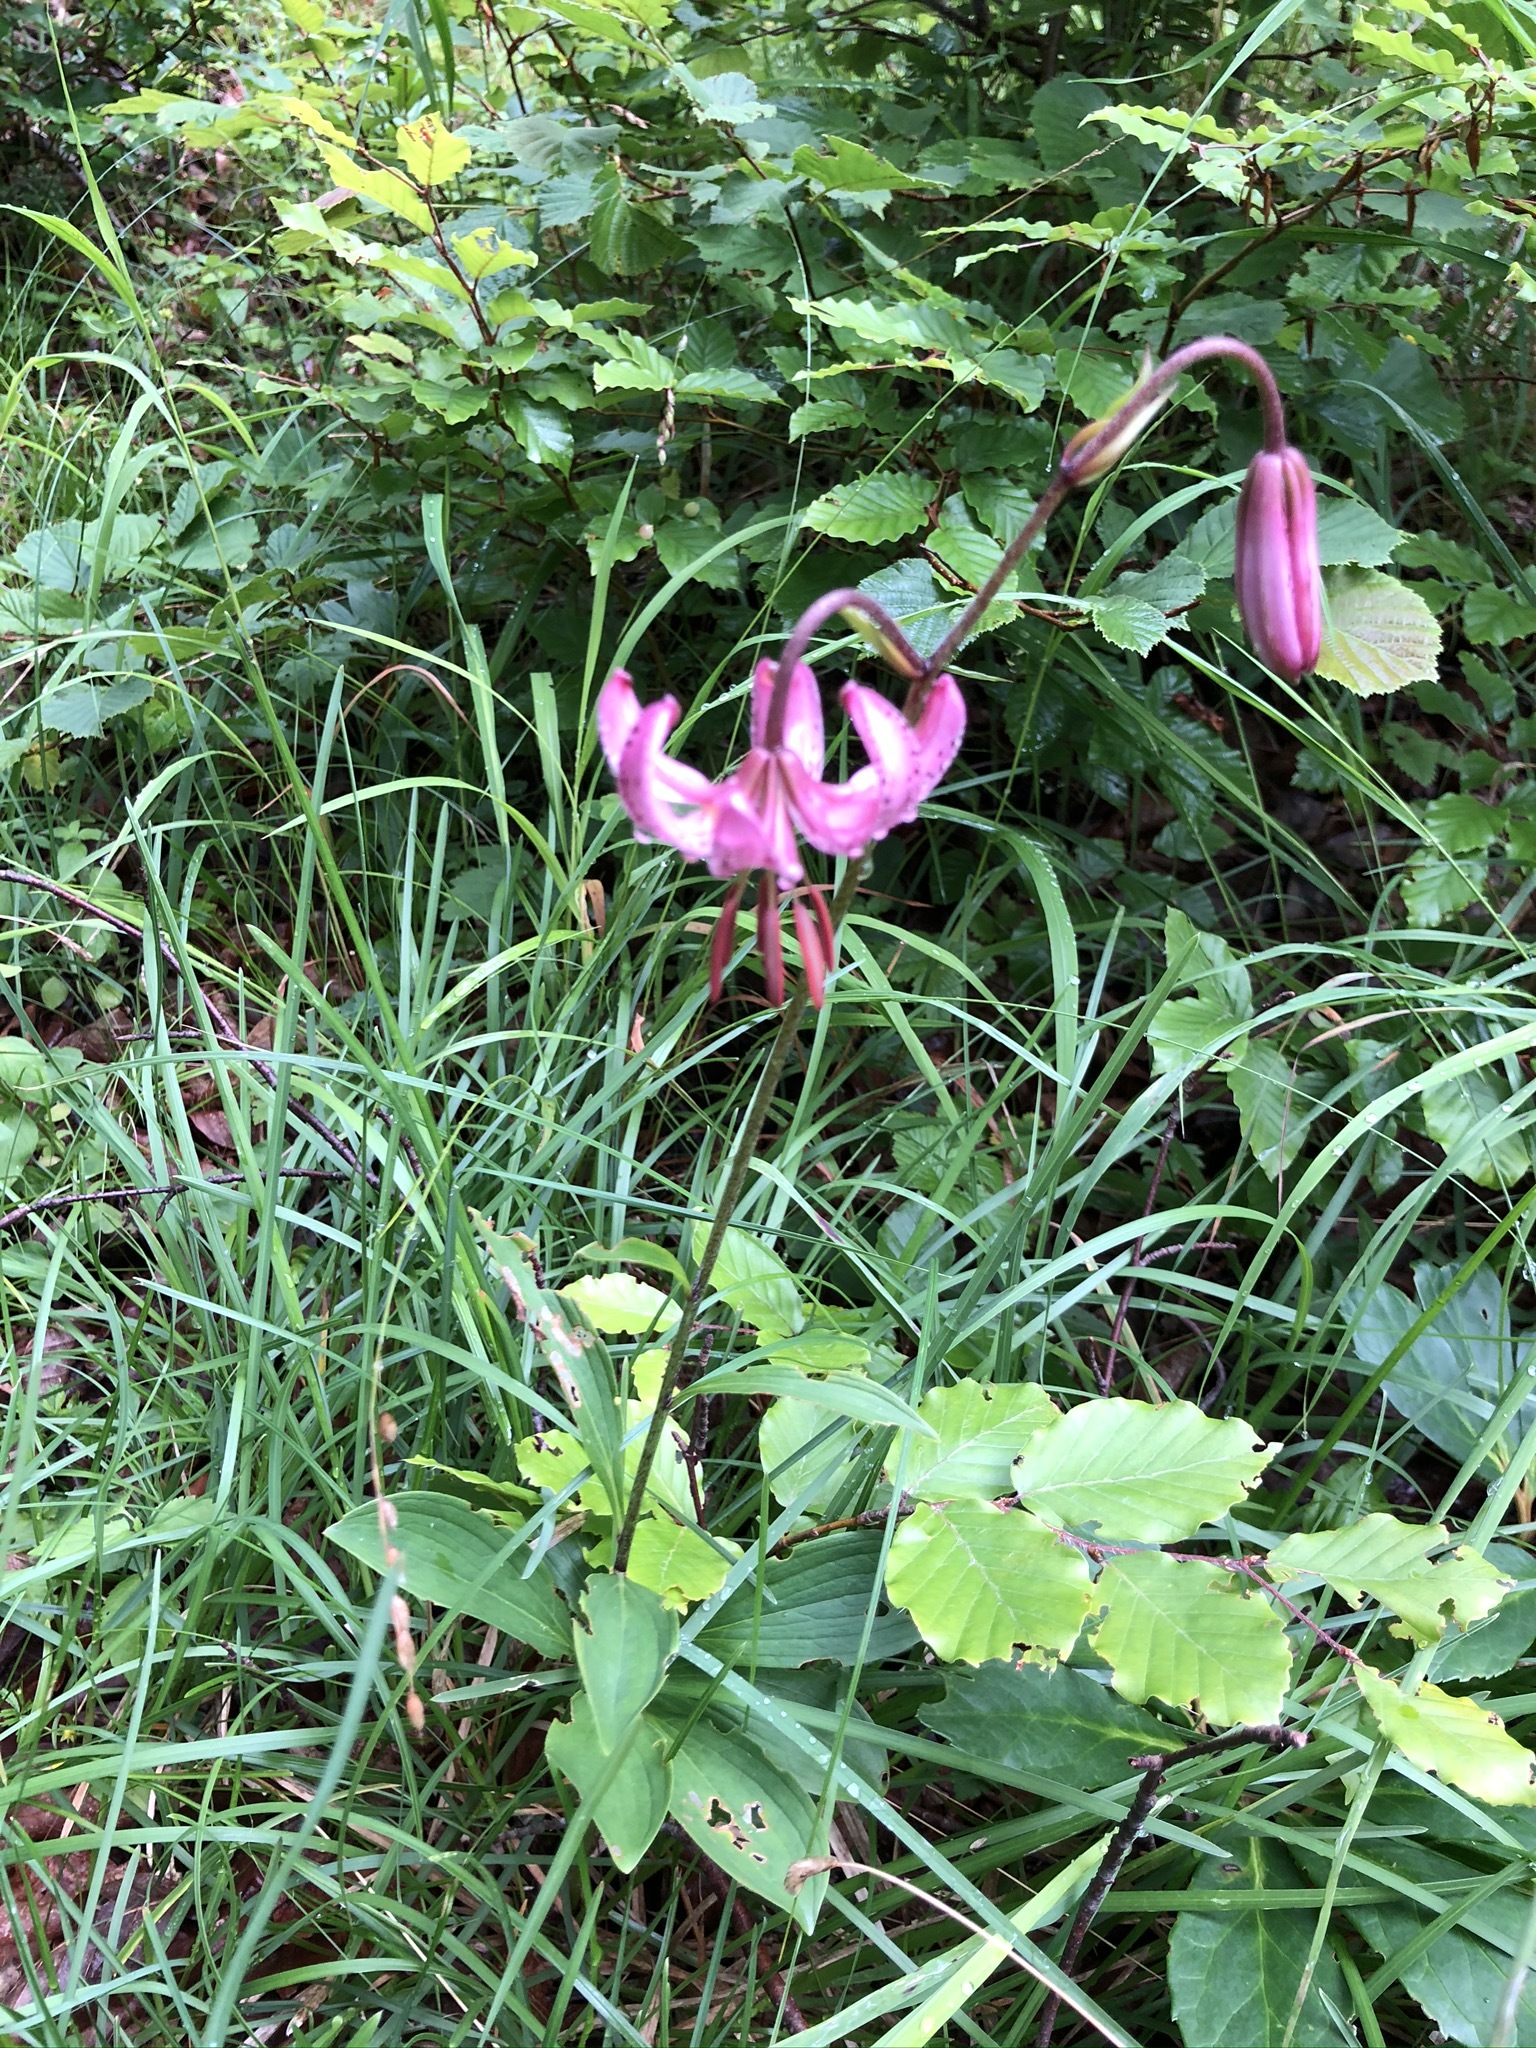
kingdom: Plantae
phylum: Tracheophyta
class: Liliopsida
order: Liliales
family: Liliaceae
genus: Lilium
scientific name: Lilium martagon
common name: Martagon lily
